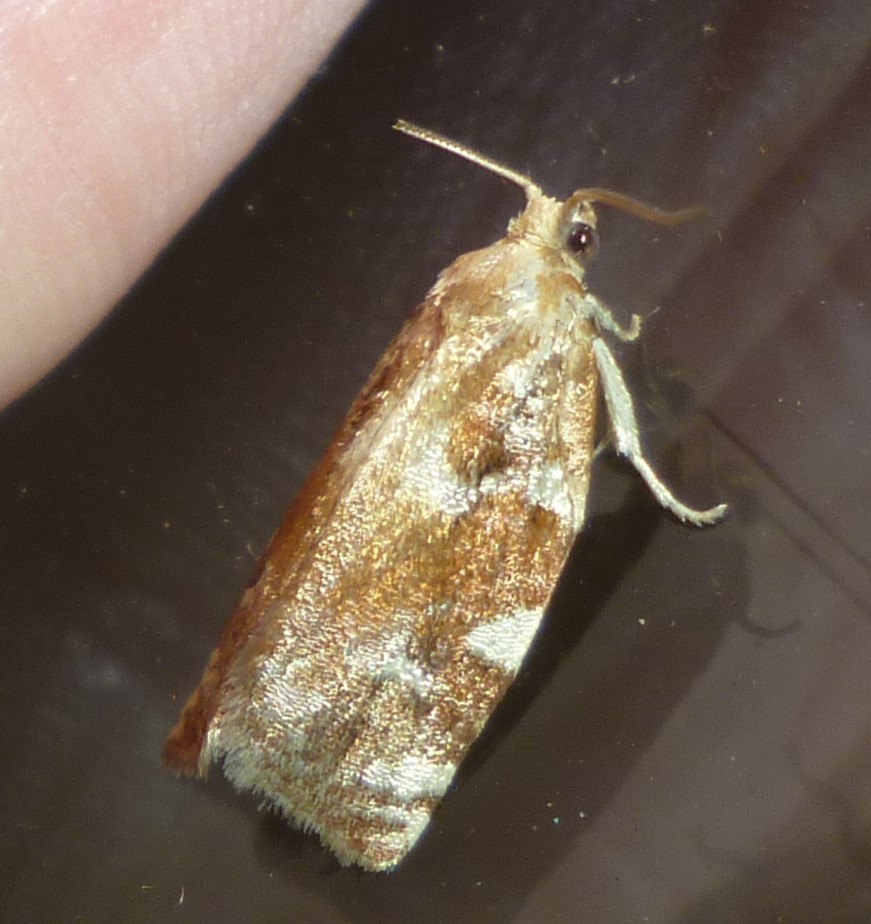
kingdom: Animalia
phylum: Arthropoda
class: Insecta
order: Lepidoptera
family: Tortricidae
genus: Archips
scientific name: Archips semiferanus
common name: Oak leafroller
